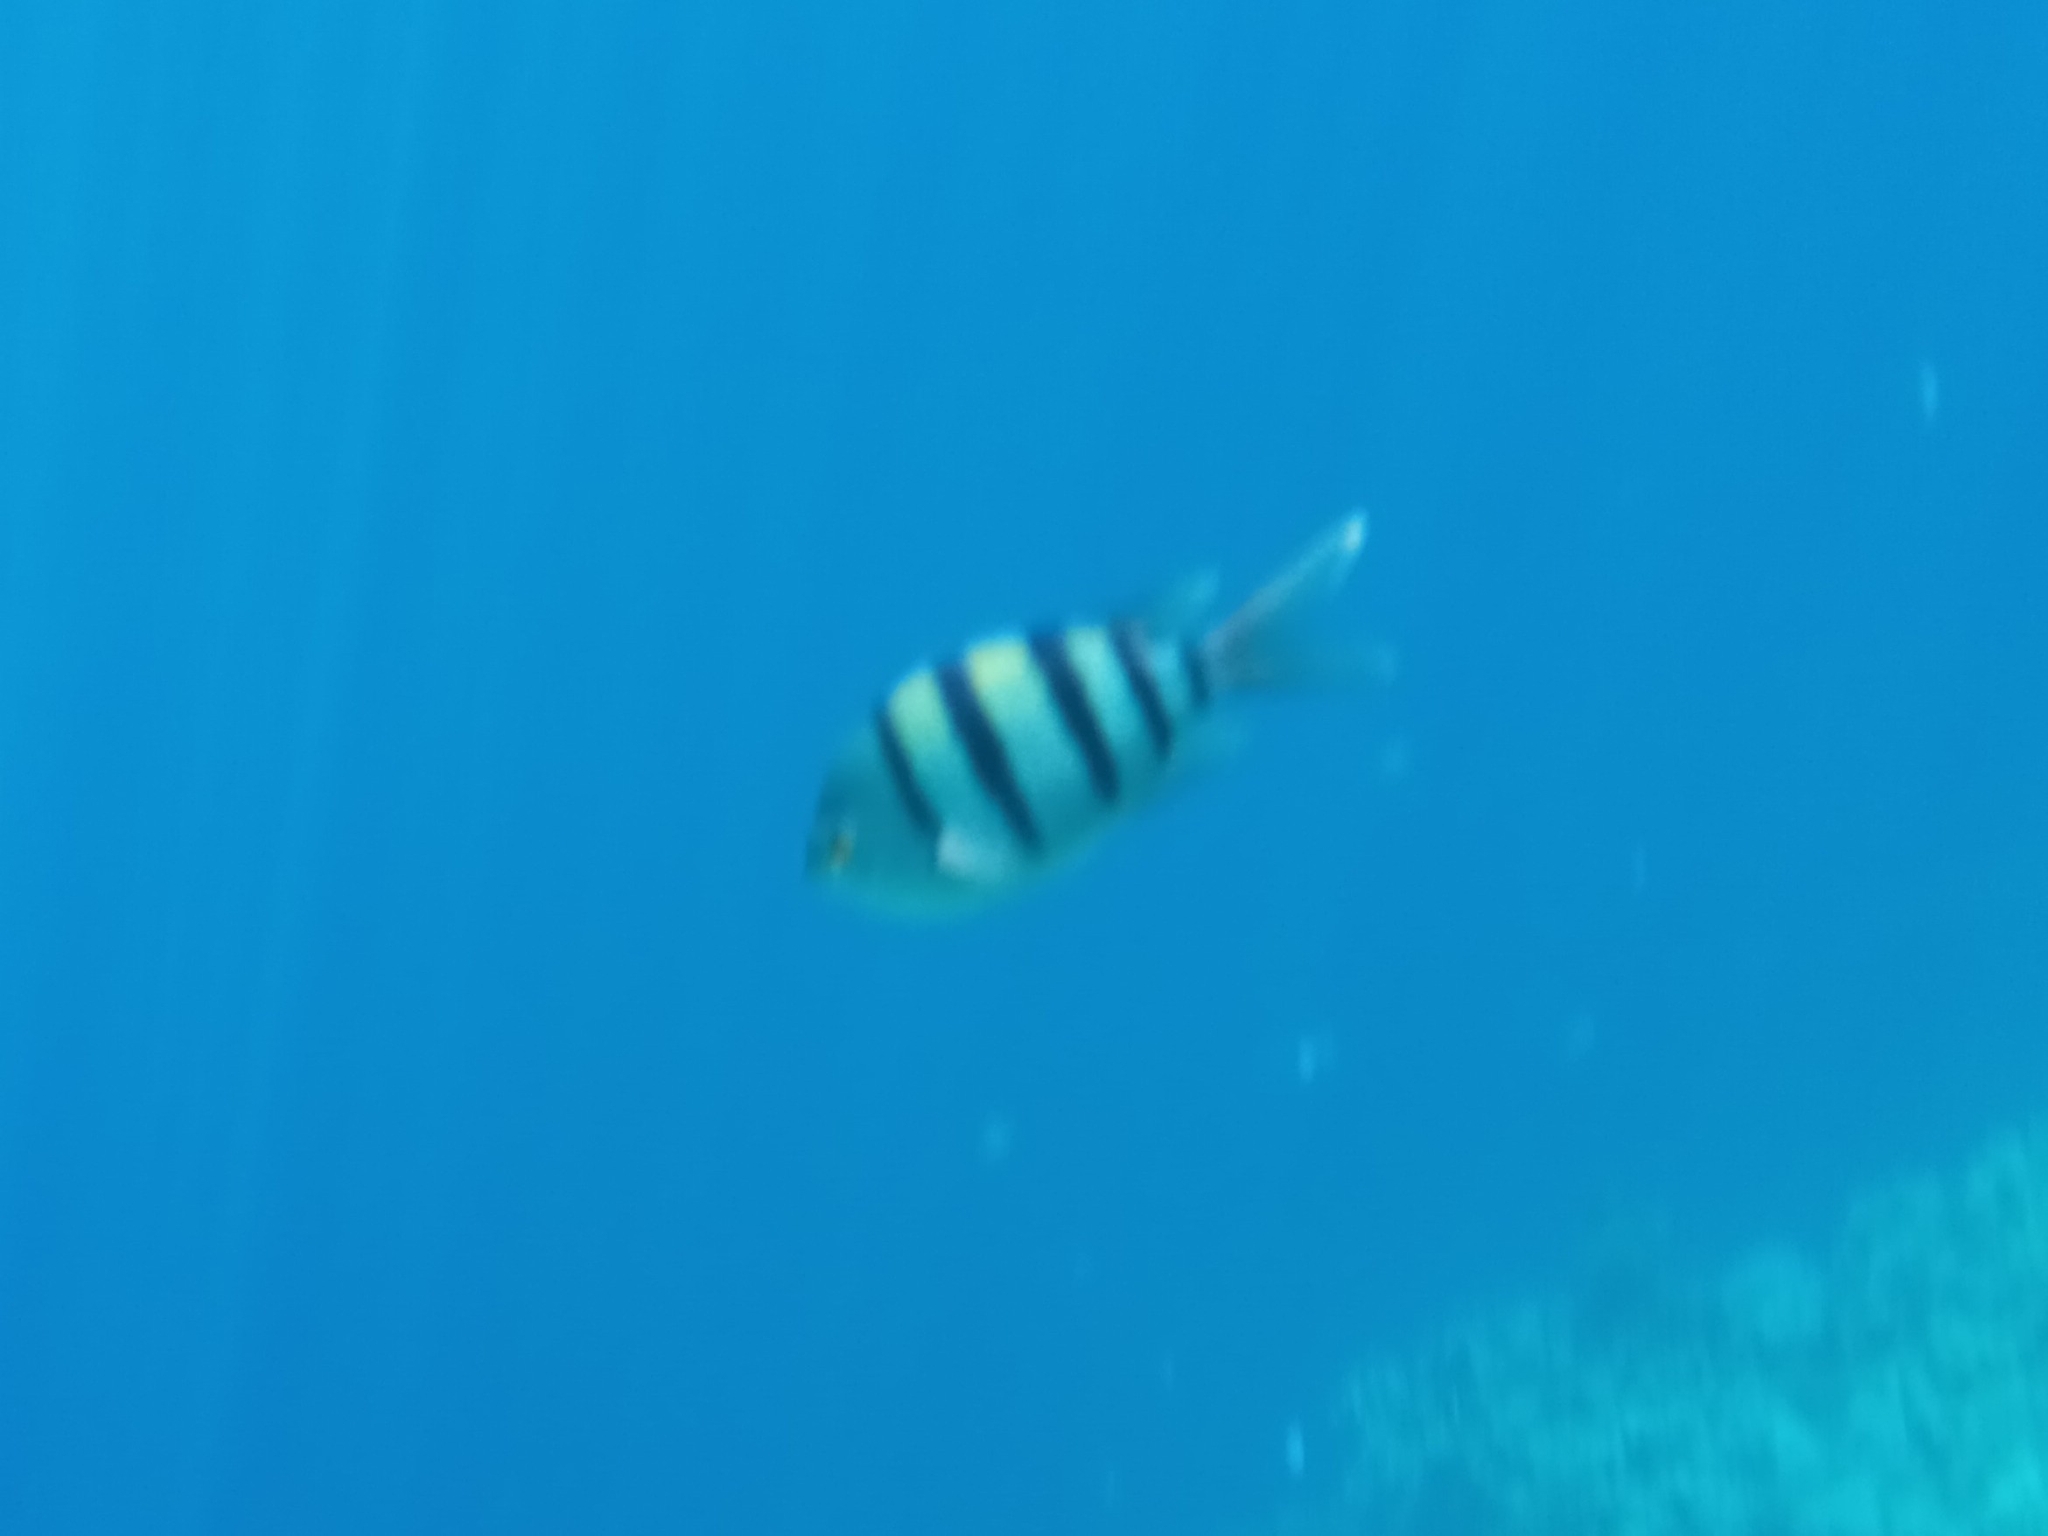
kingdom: Animalia
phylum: Chordata
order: Perciformes
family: Pomacentridae
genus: Abudefduf
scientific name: Abudefduf vaigiensis
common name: Indo-pacific sergeant
